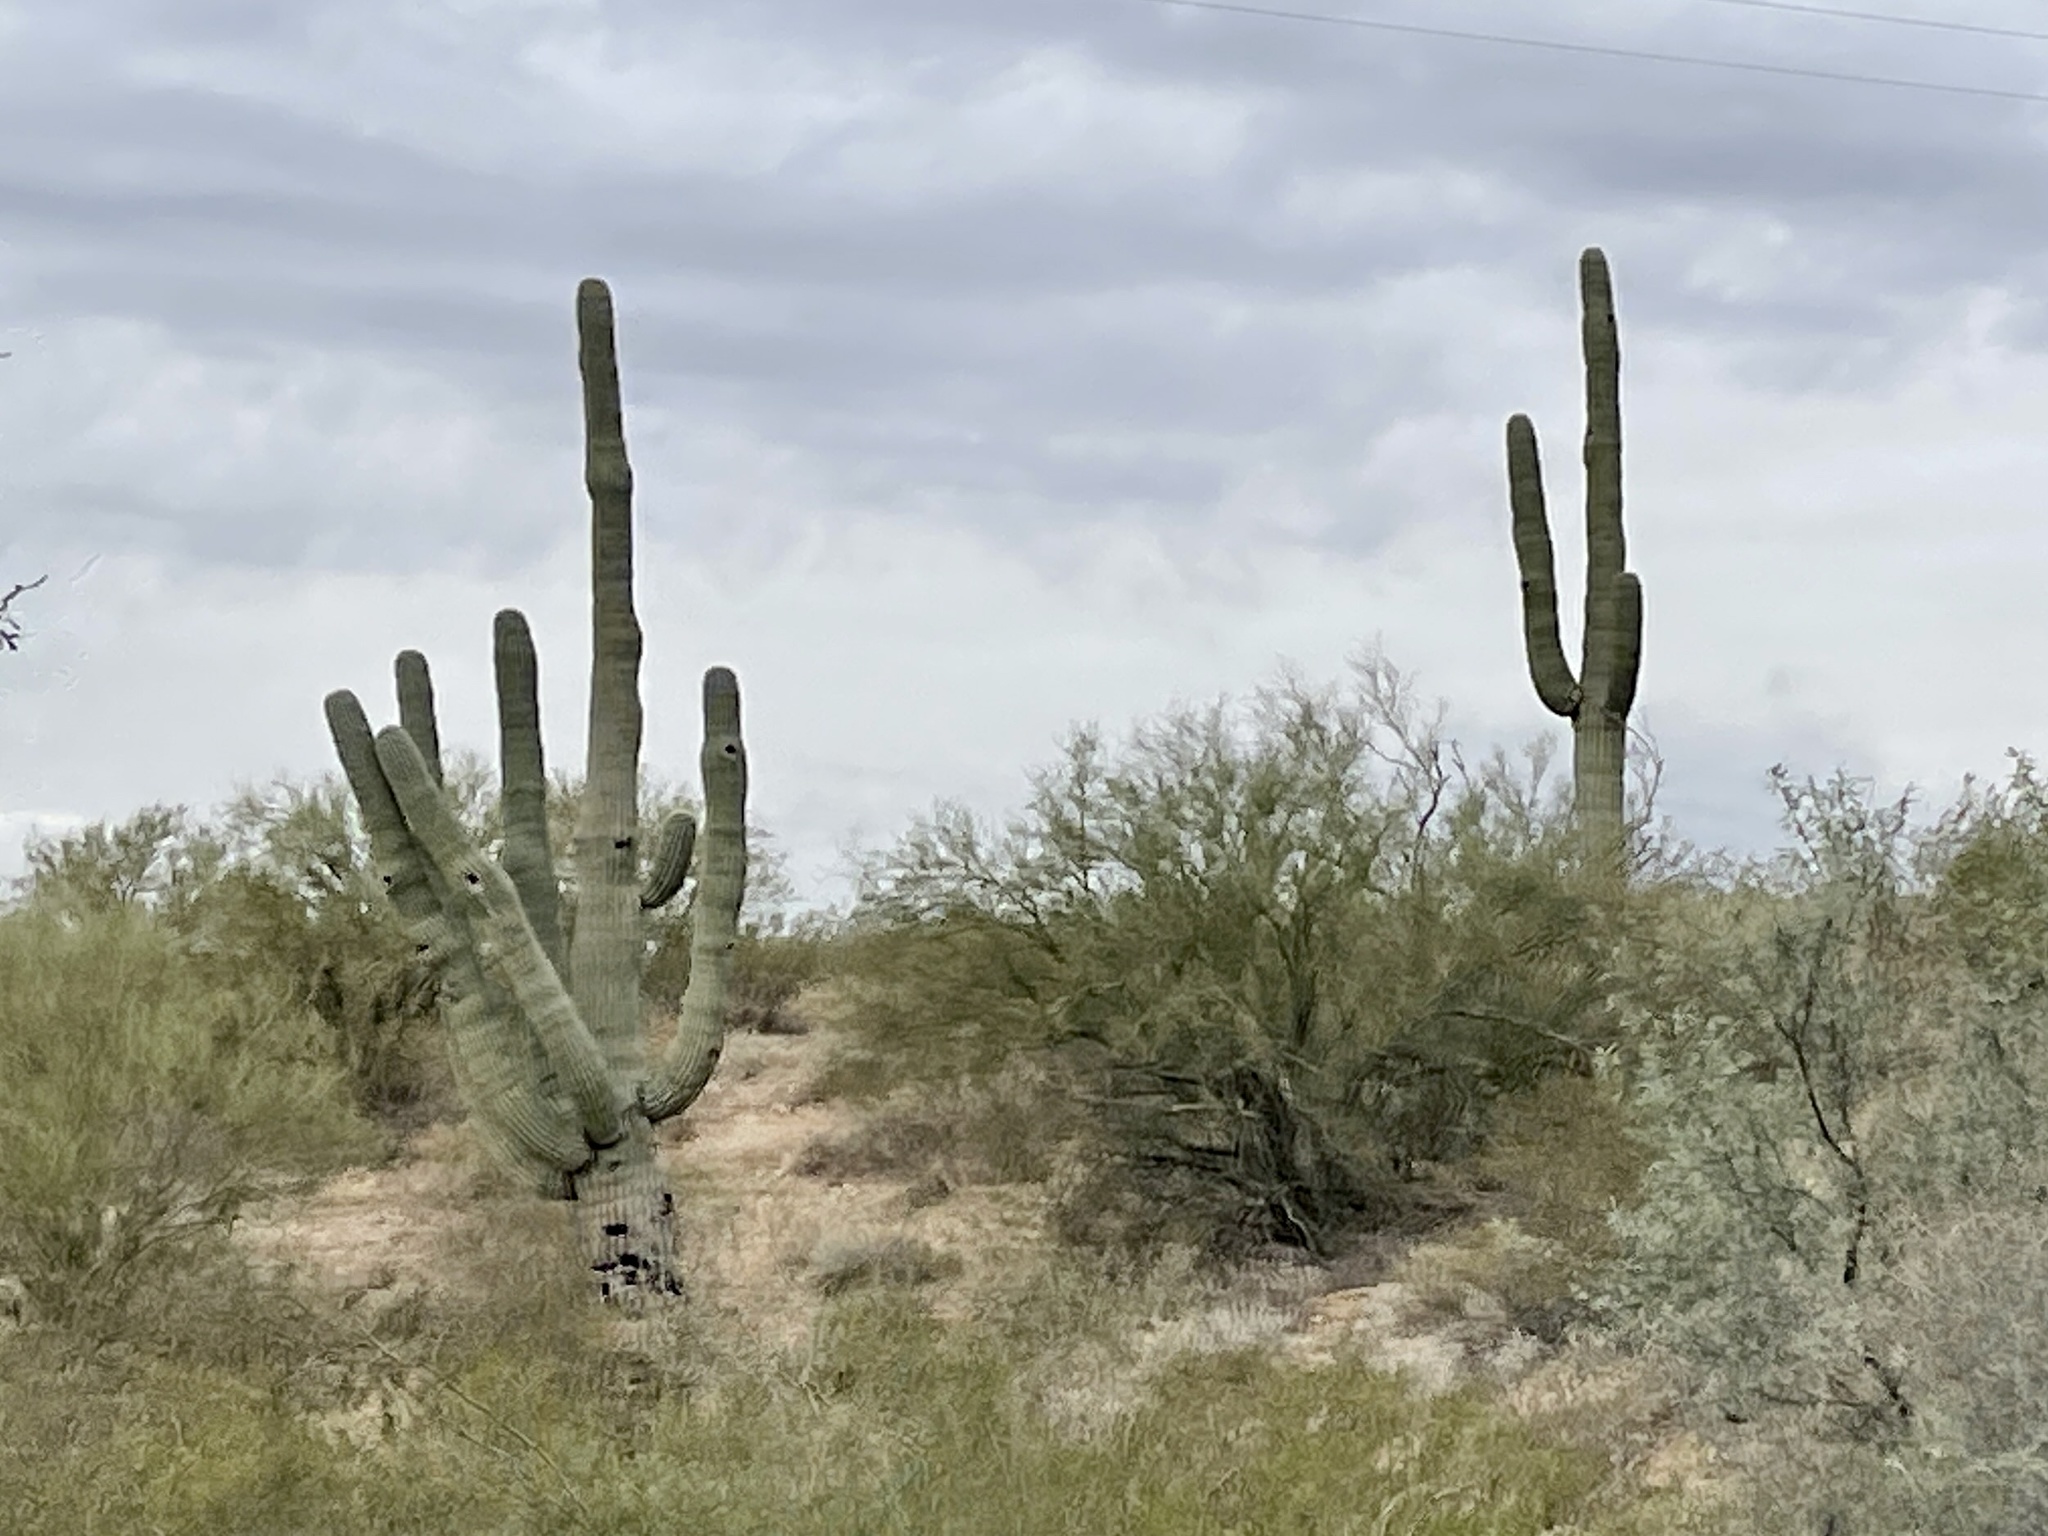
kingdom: Plantae
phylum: Tracheophyta
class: Magnoliopsida
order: Caryophyllales
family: Cactaceae
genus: Carnegiea
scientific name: Carnegiea gigantea
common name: Saguaro
